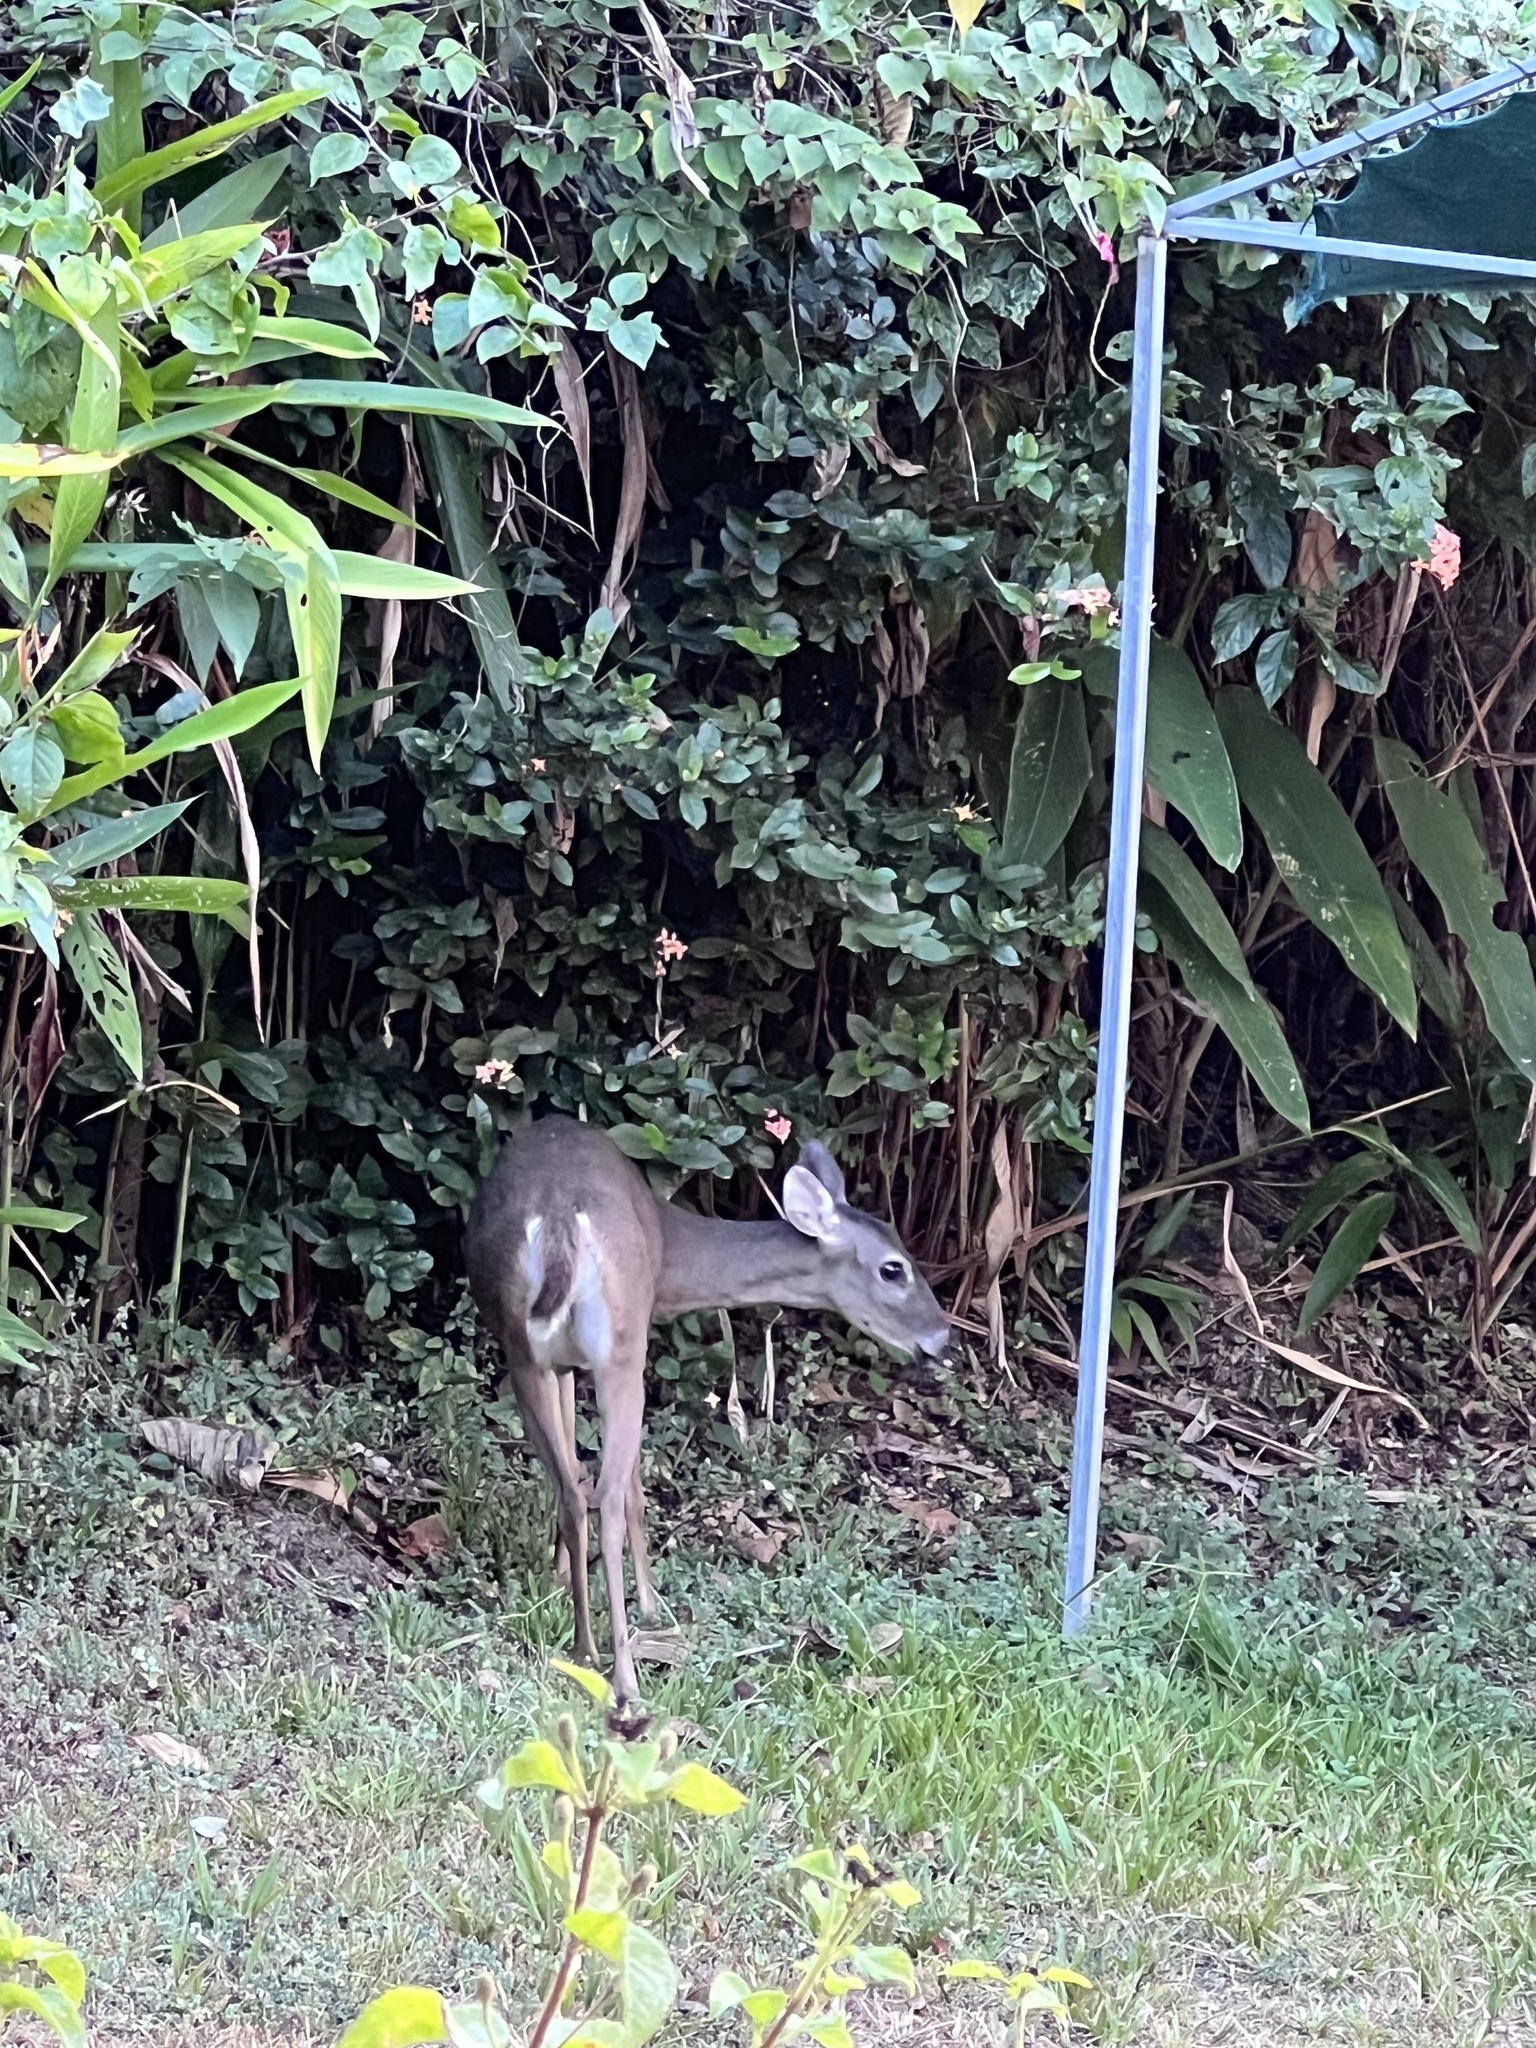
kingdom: Animalia
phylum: Chordata
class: Mammalia
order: Artiodactyla
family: Cervidae
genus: Odocoileus
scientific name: Odocoileus virginianus
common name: White-tailed deer
